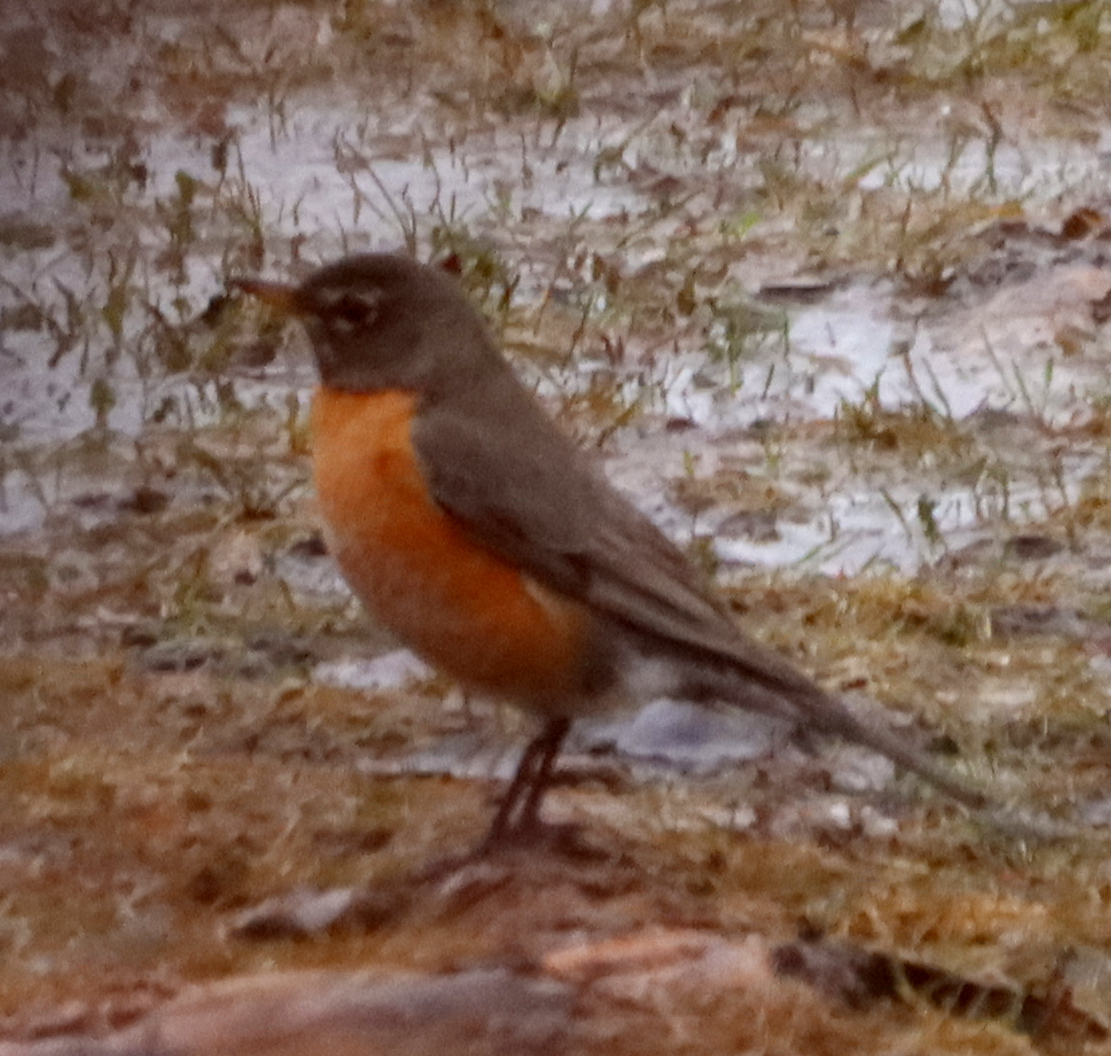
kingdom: Animalia
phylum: Chordata
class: Aves
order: Passeriformes
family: Turdidae
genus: Turdus
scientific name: Turdus migratorius
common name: American robin
